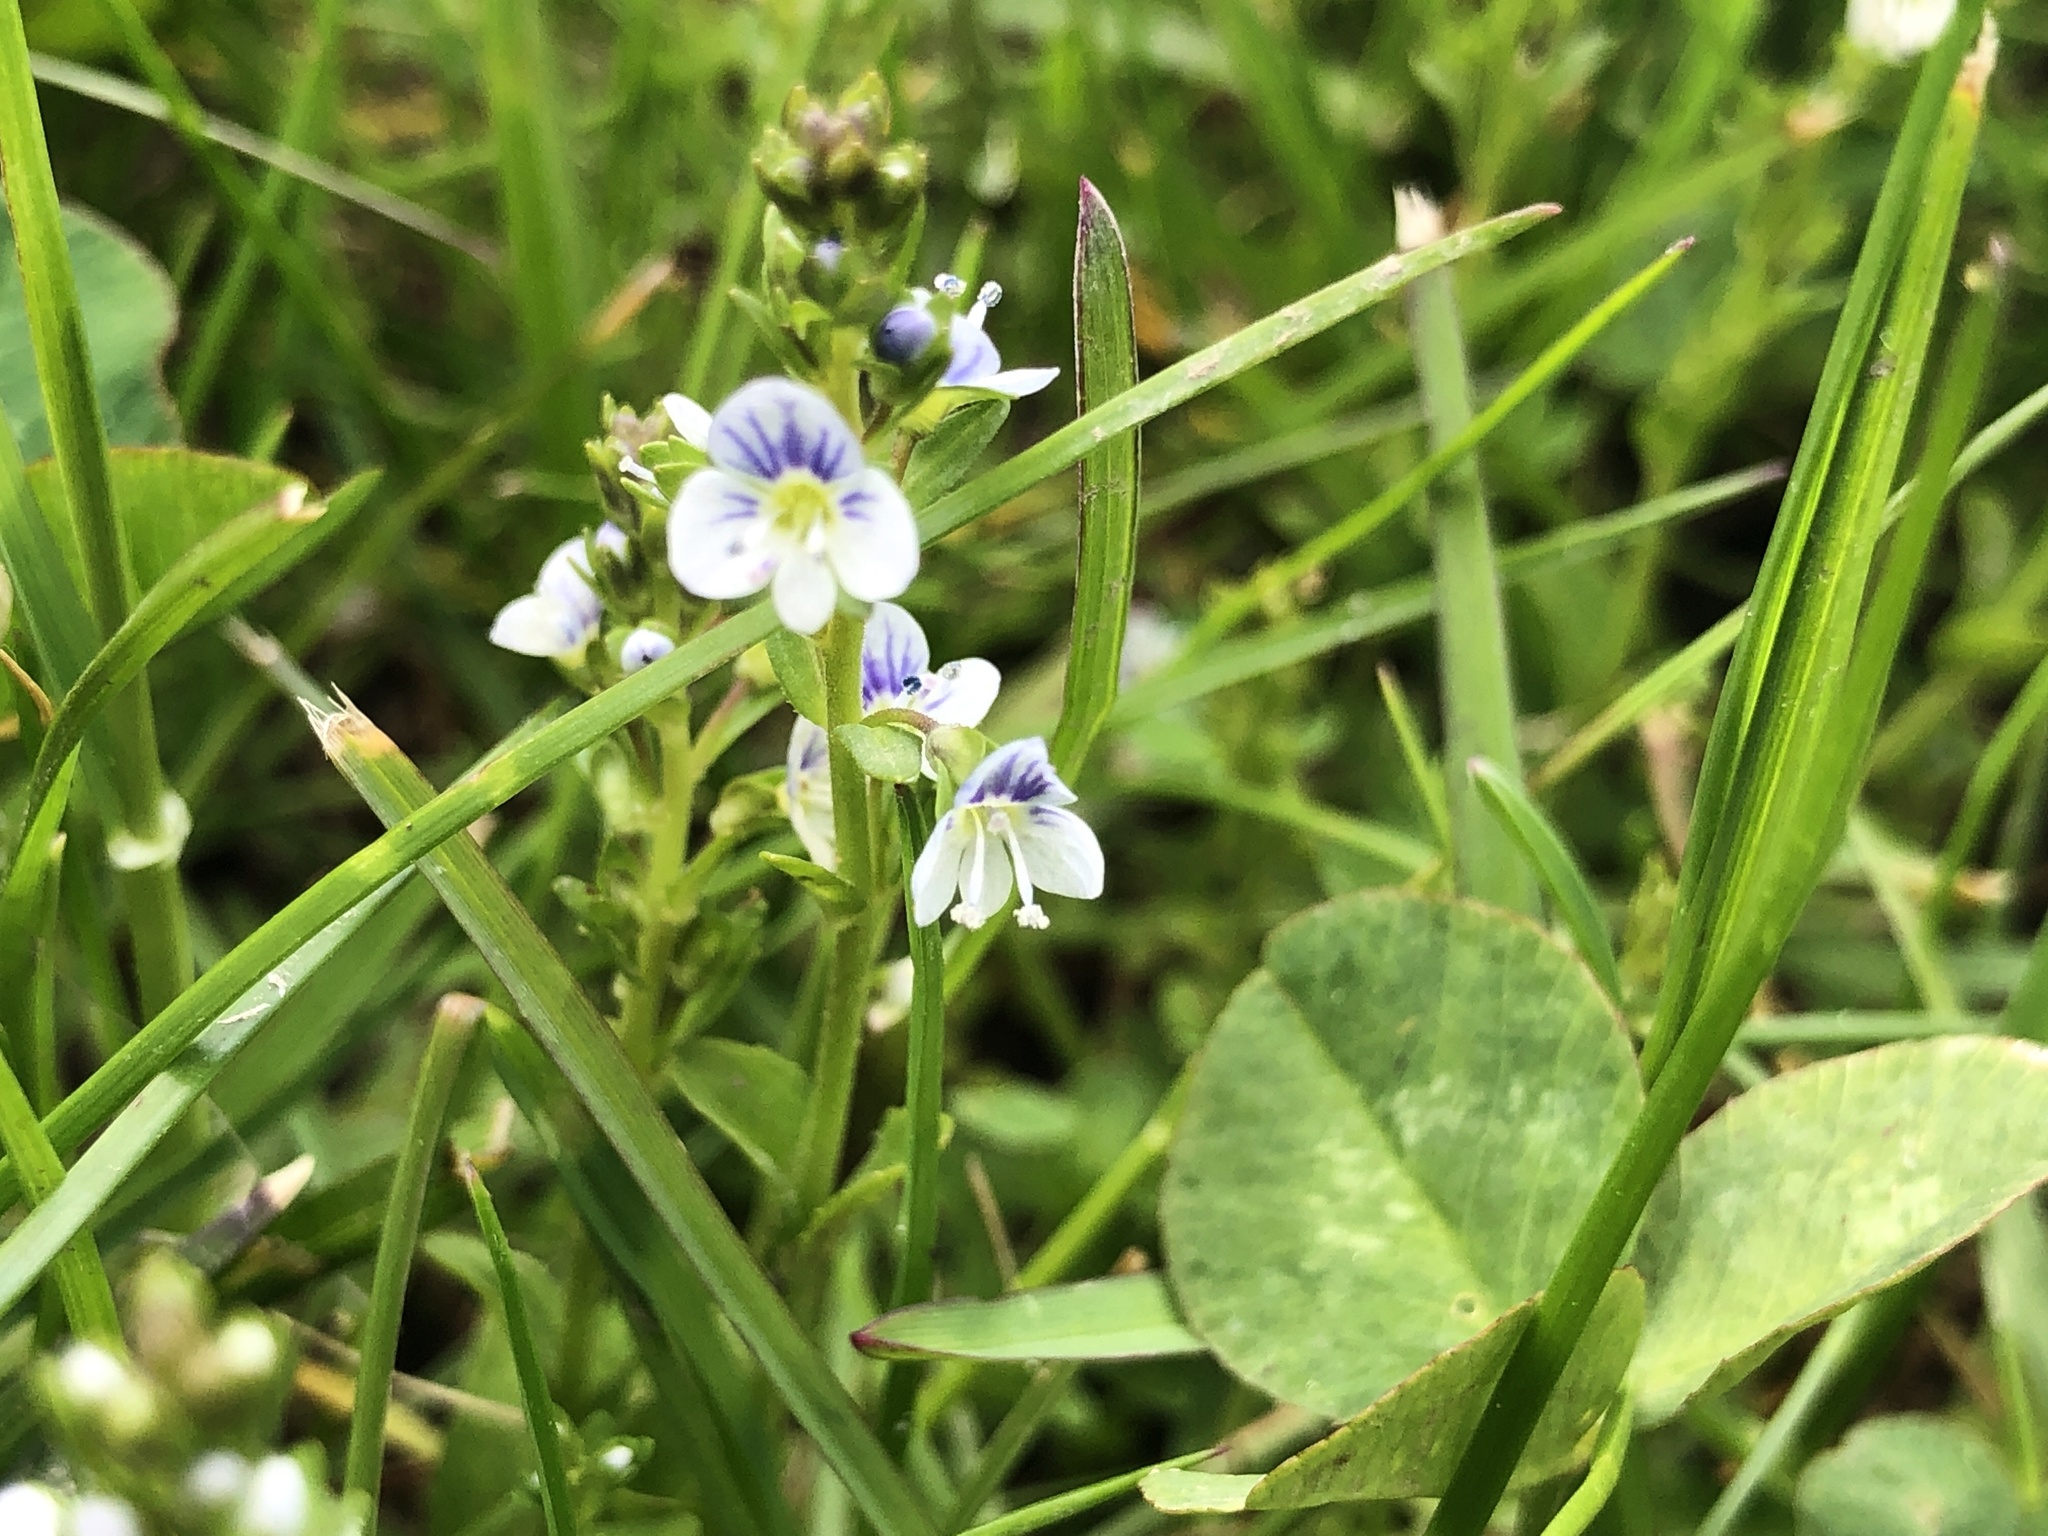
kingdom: Plantae
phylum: Tracheophyta
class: Magnoliopsida
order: Lamiales
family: Plantaginaceae
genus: Veronica
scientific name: Veronica serpyllifolia
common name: Thyme-leaved speedwell
